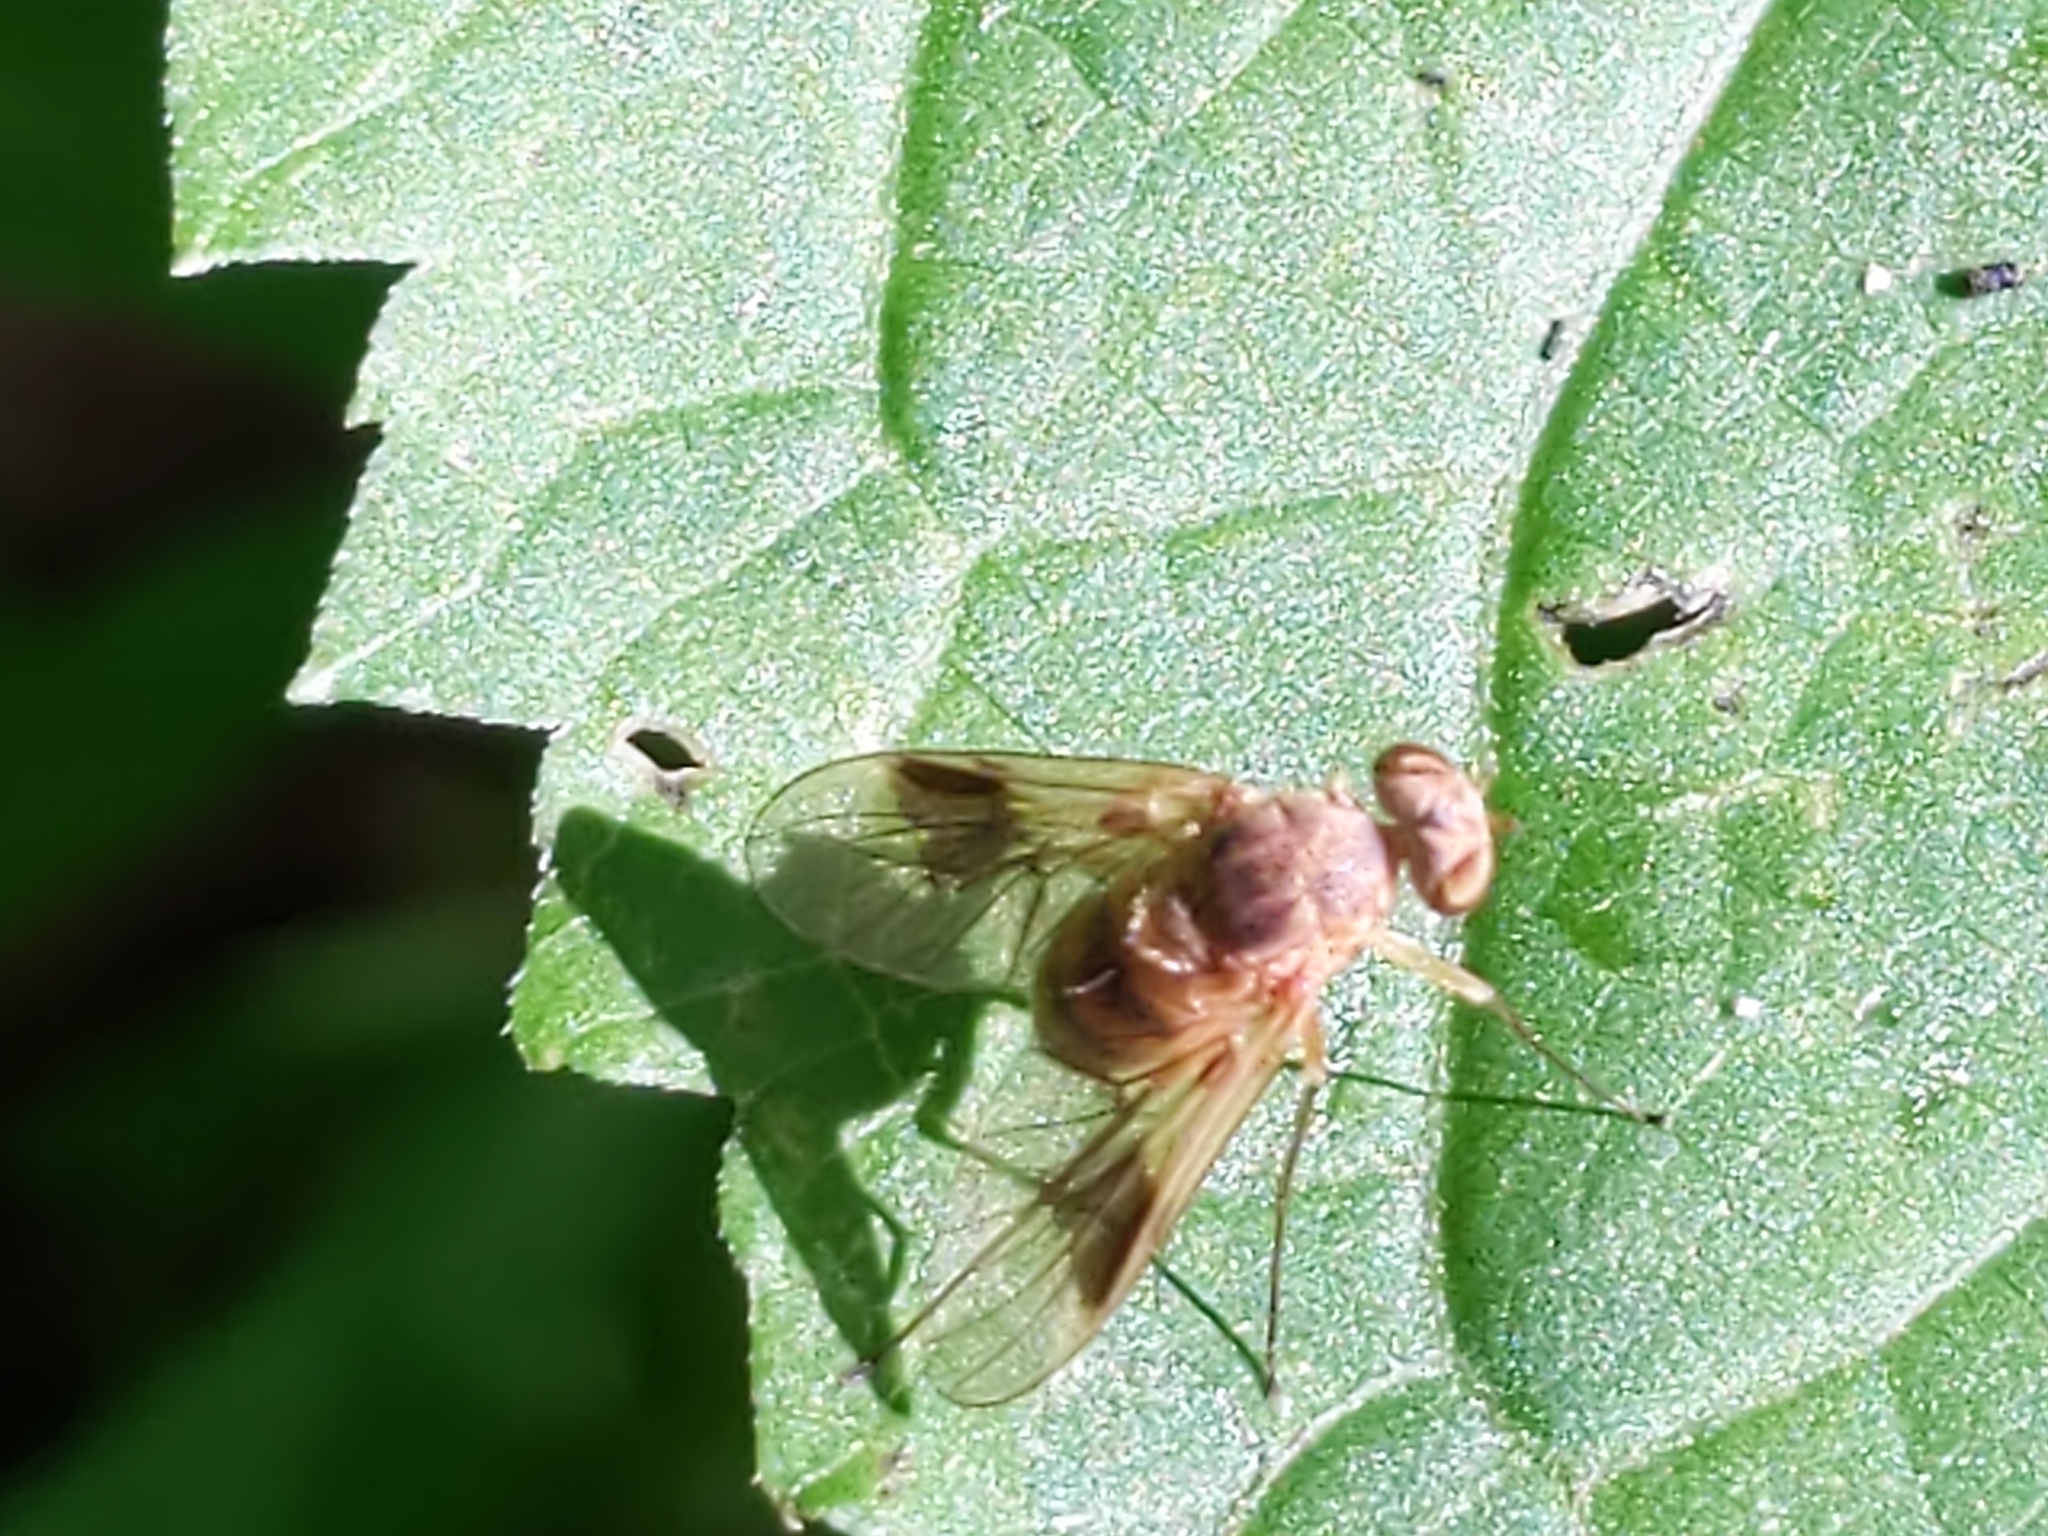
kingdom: Animalia
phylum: Arthropoda
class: Insecta
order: Diptera
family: Rhagionidae
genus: Chrysopilus
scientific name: Chrysopilus quadratus
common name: Quadrate snipe fly
